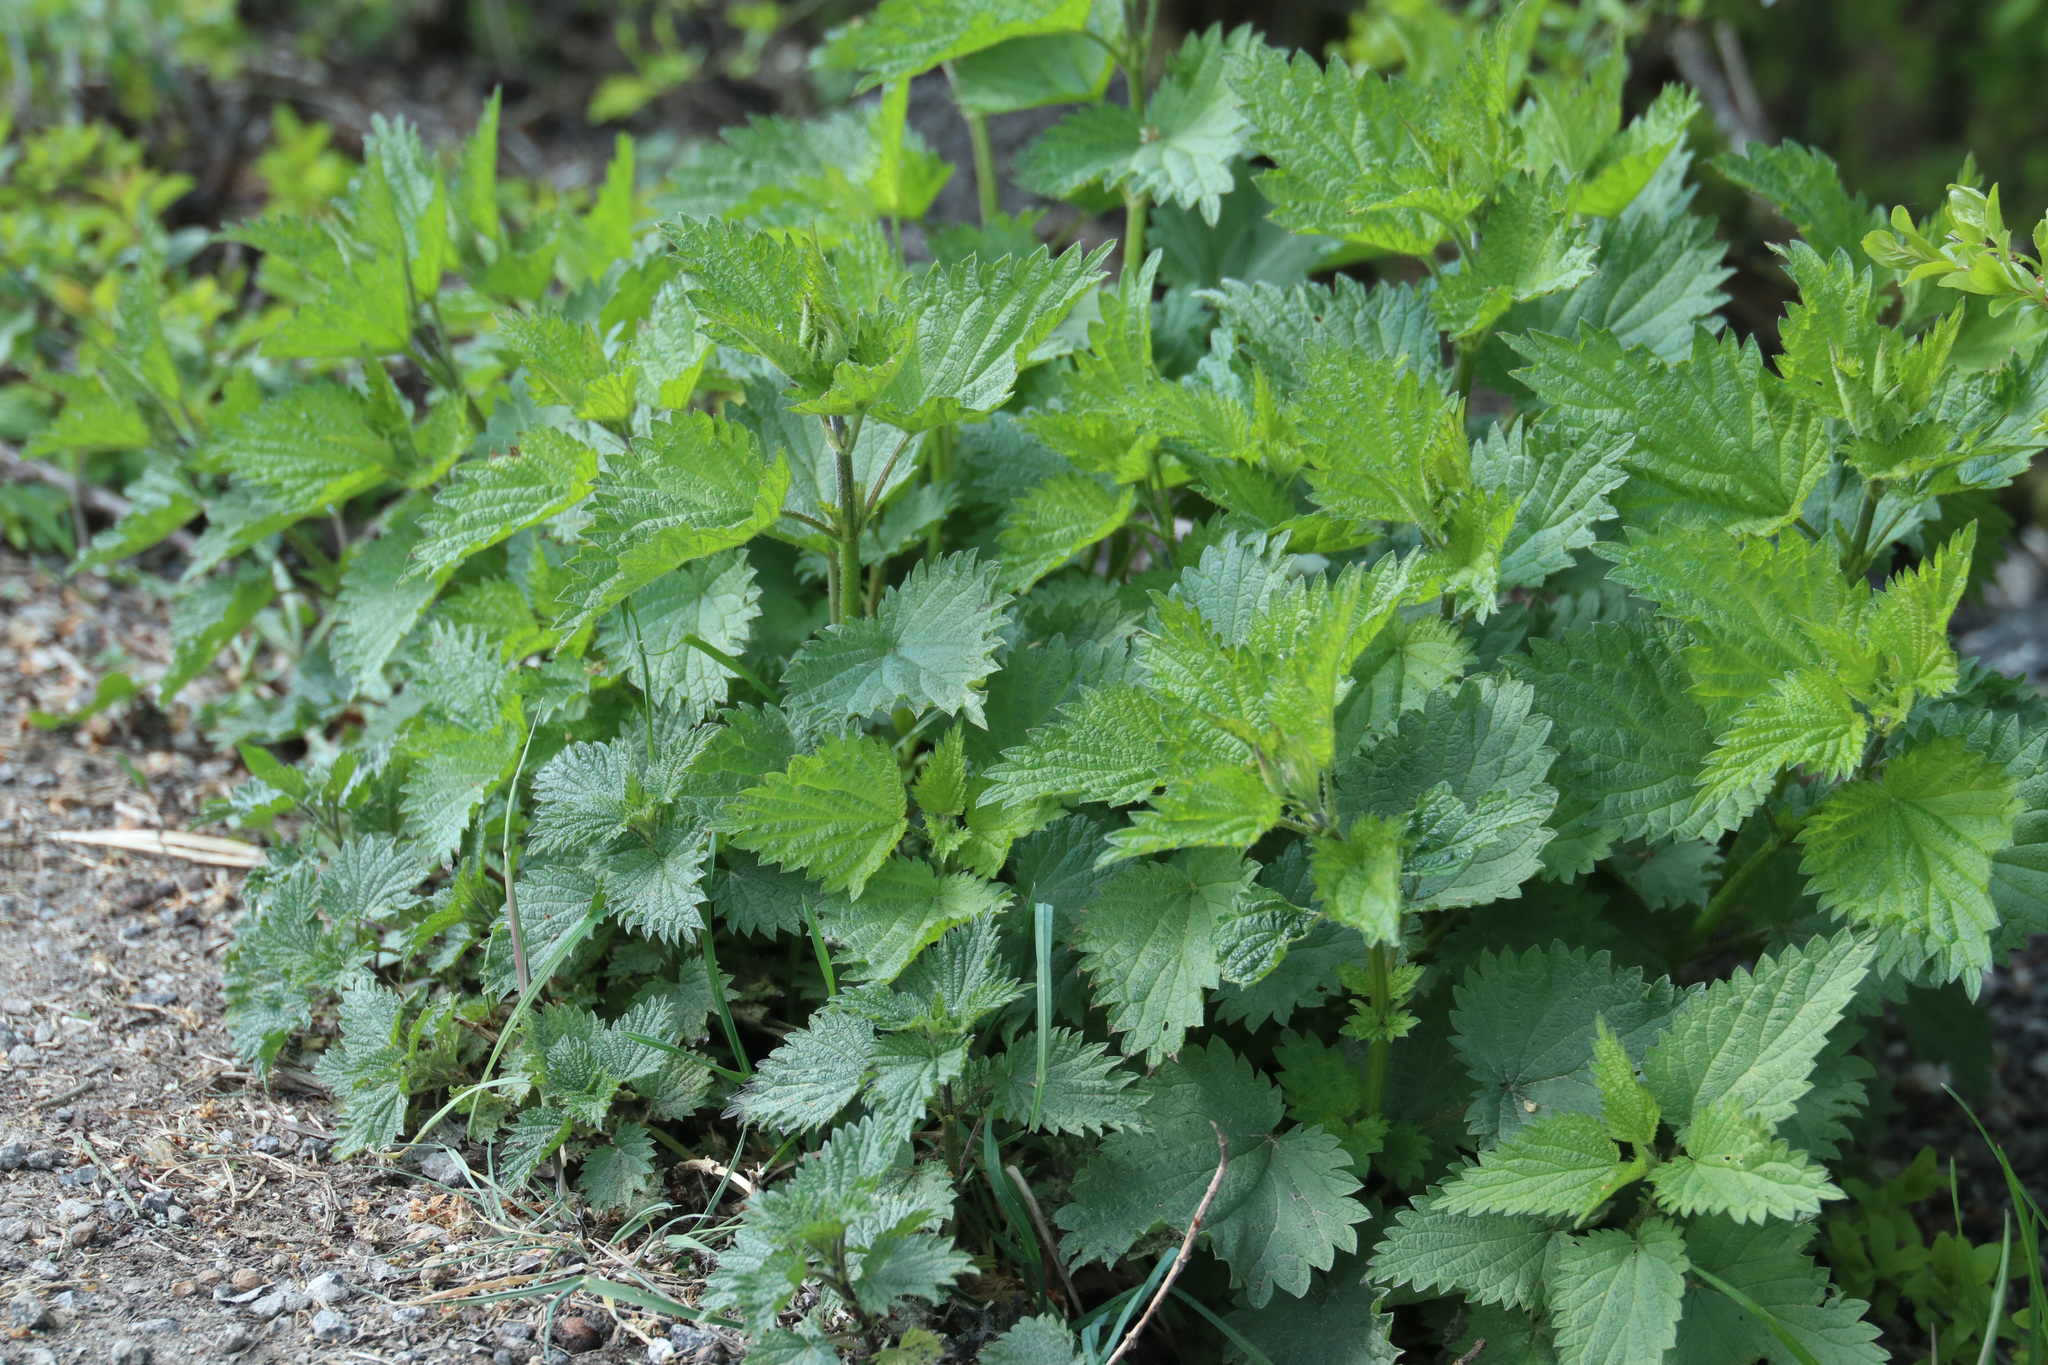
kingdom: Plantae
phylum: Tracheophyta
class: Magnoliopsida
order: Rosales
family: Urticaceae
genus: Urtica
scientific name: Urtica dioica
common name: Common nettle
